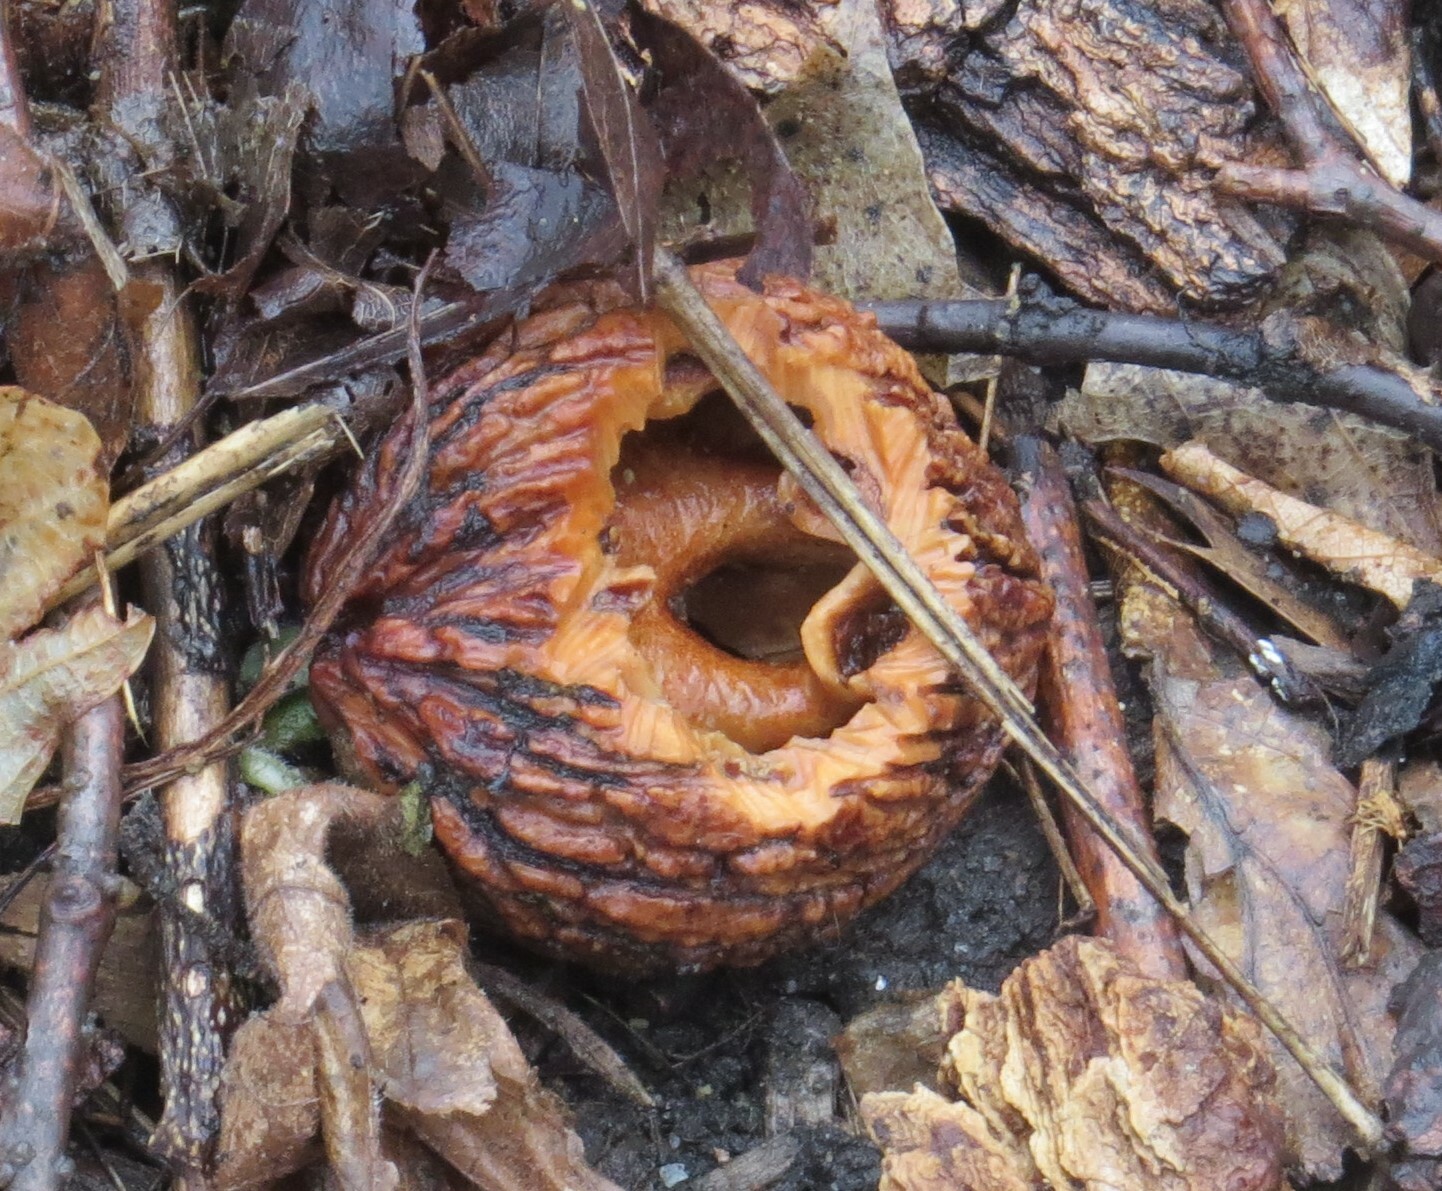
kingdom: Plantae
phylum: Tracheophyta
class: Magnoliopsida
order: Fagales
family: Juglandaceae
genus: Juglans
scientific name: Juglans nigra
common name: Black walnut
